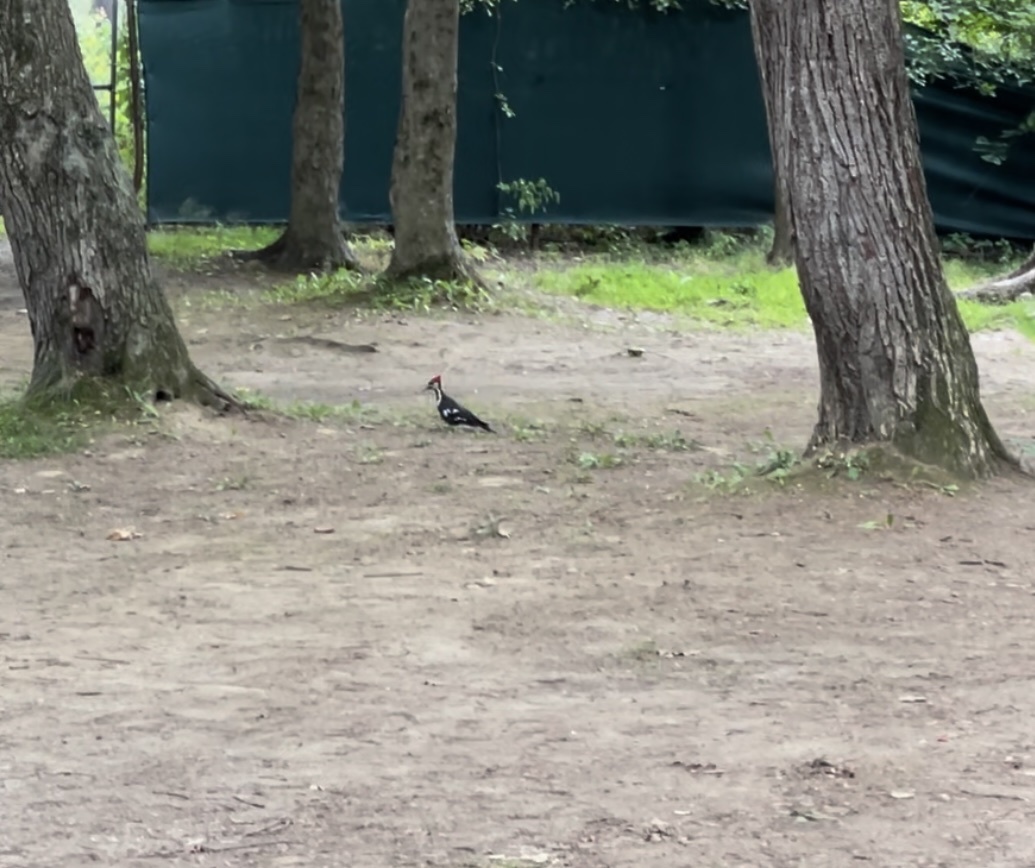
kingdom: Animalia
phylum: Chordata
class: Aves
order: Piciformes
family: Picidae
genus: Dryocopus
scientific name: Dryocopus pileatus
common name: Pileated woodpecker
